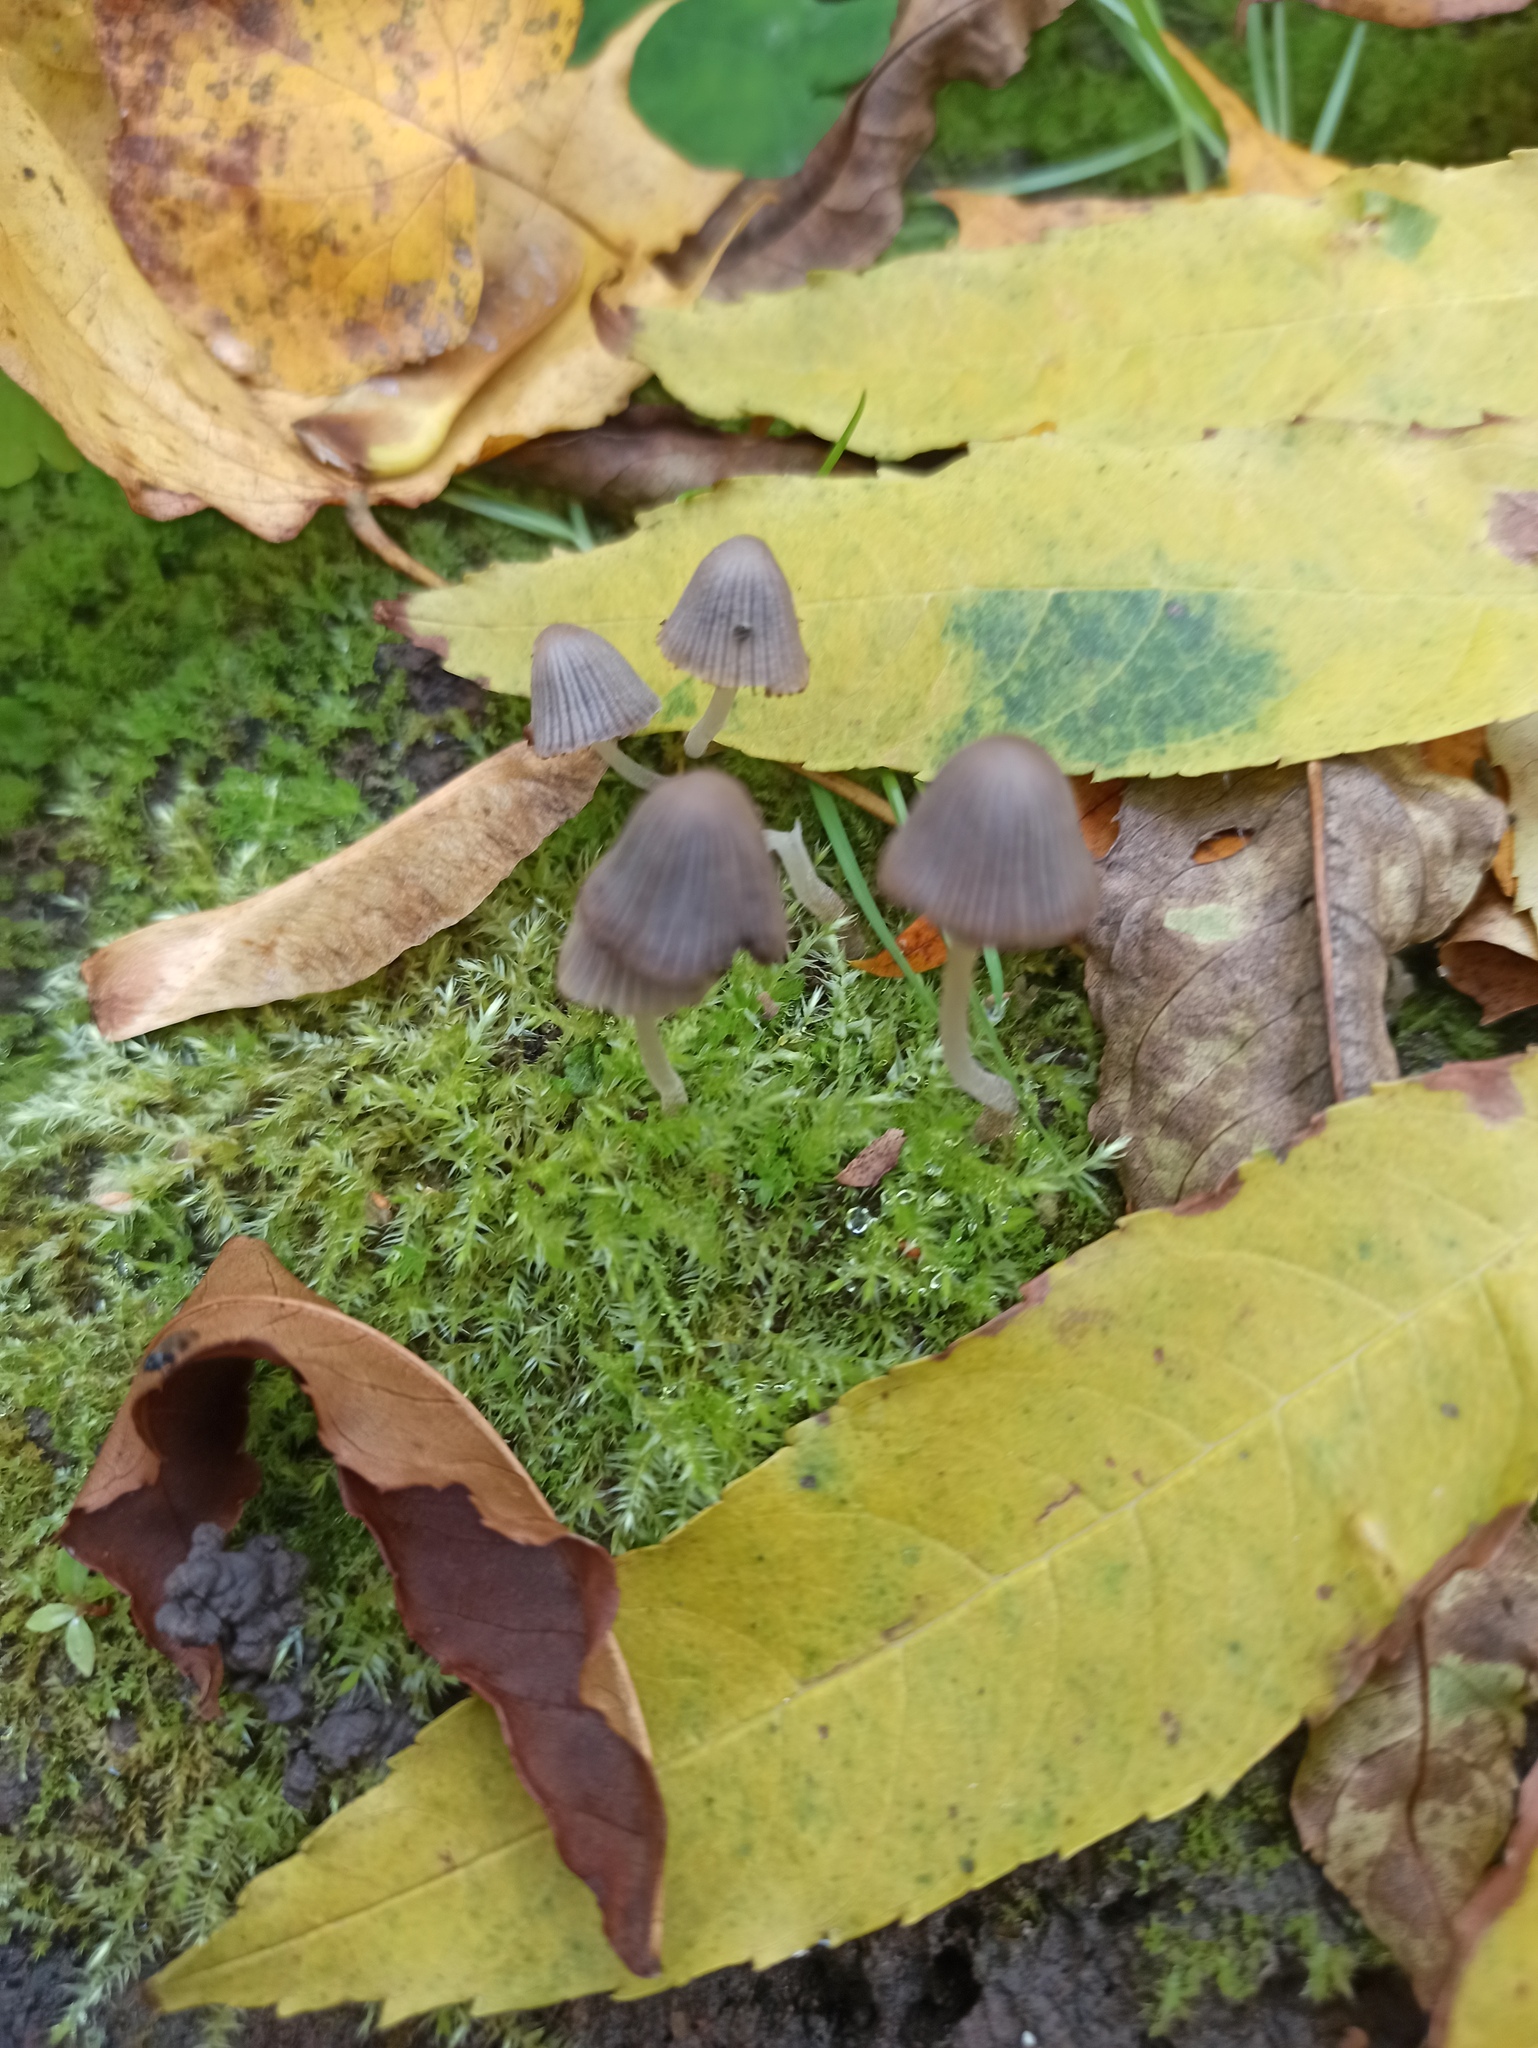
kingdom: Fungi
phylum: Basidiomycota
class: Agaricomycetes
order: Agaricales
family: Psathyrellaceae
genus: Coprinellus
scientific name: Coprinellus disseminatus
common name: Fairies' bonnets
